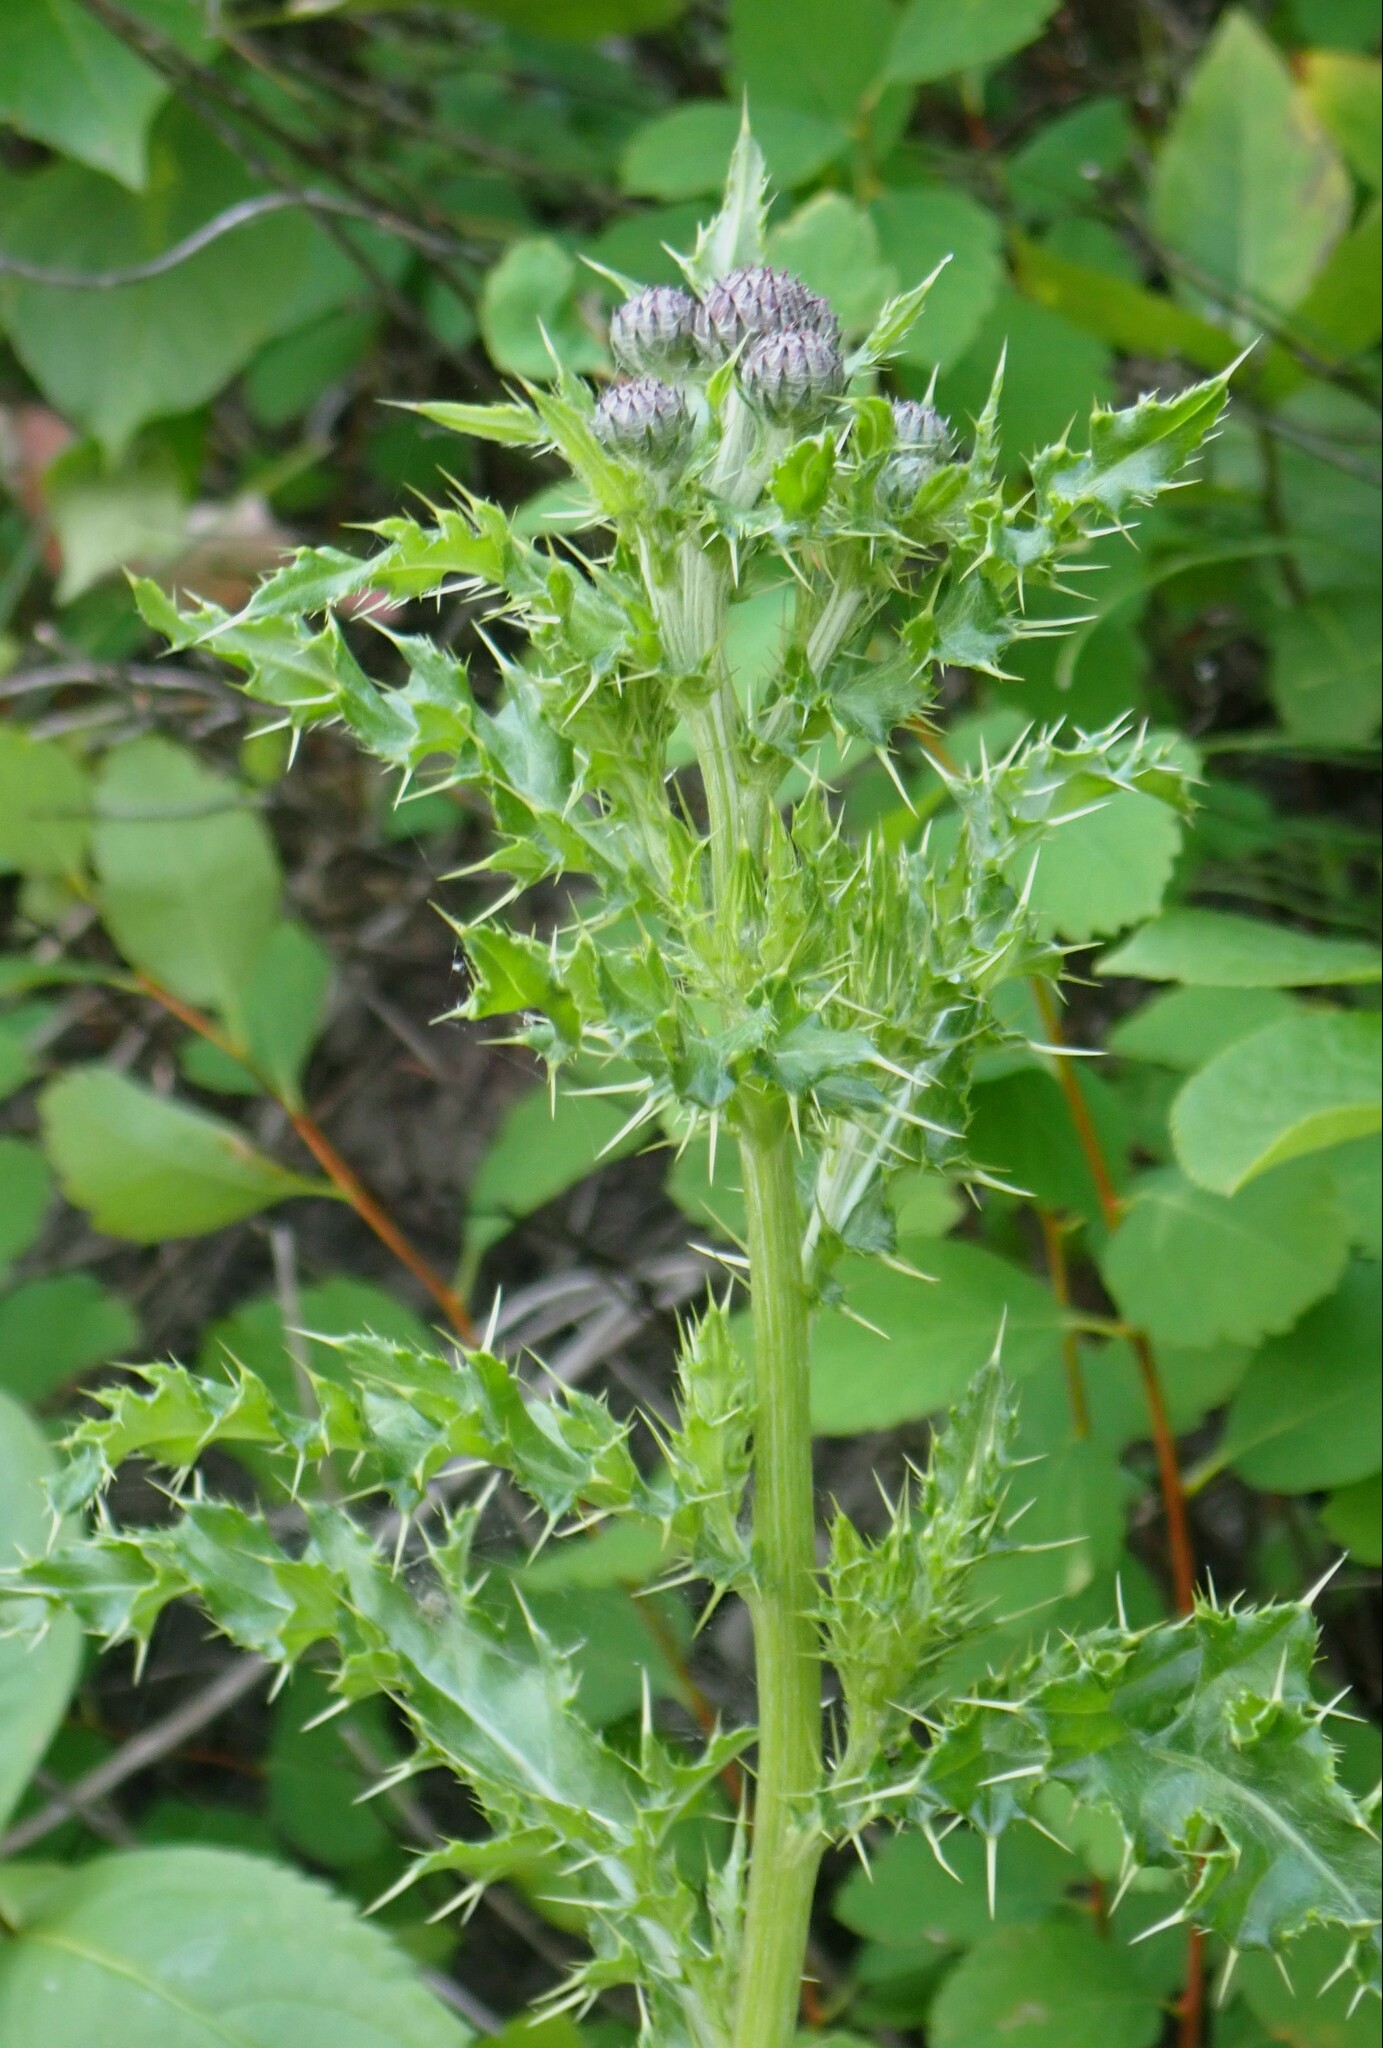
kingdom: Plantae
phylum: Tracheophyta
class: Magnoliopsida
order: Asterales
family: Asteraceae
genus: Cirsium
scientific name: Cirsium arvense
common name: Creeping thistle
